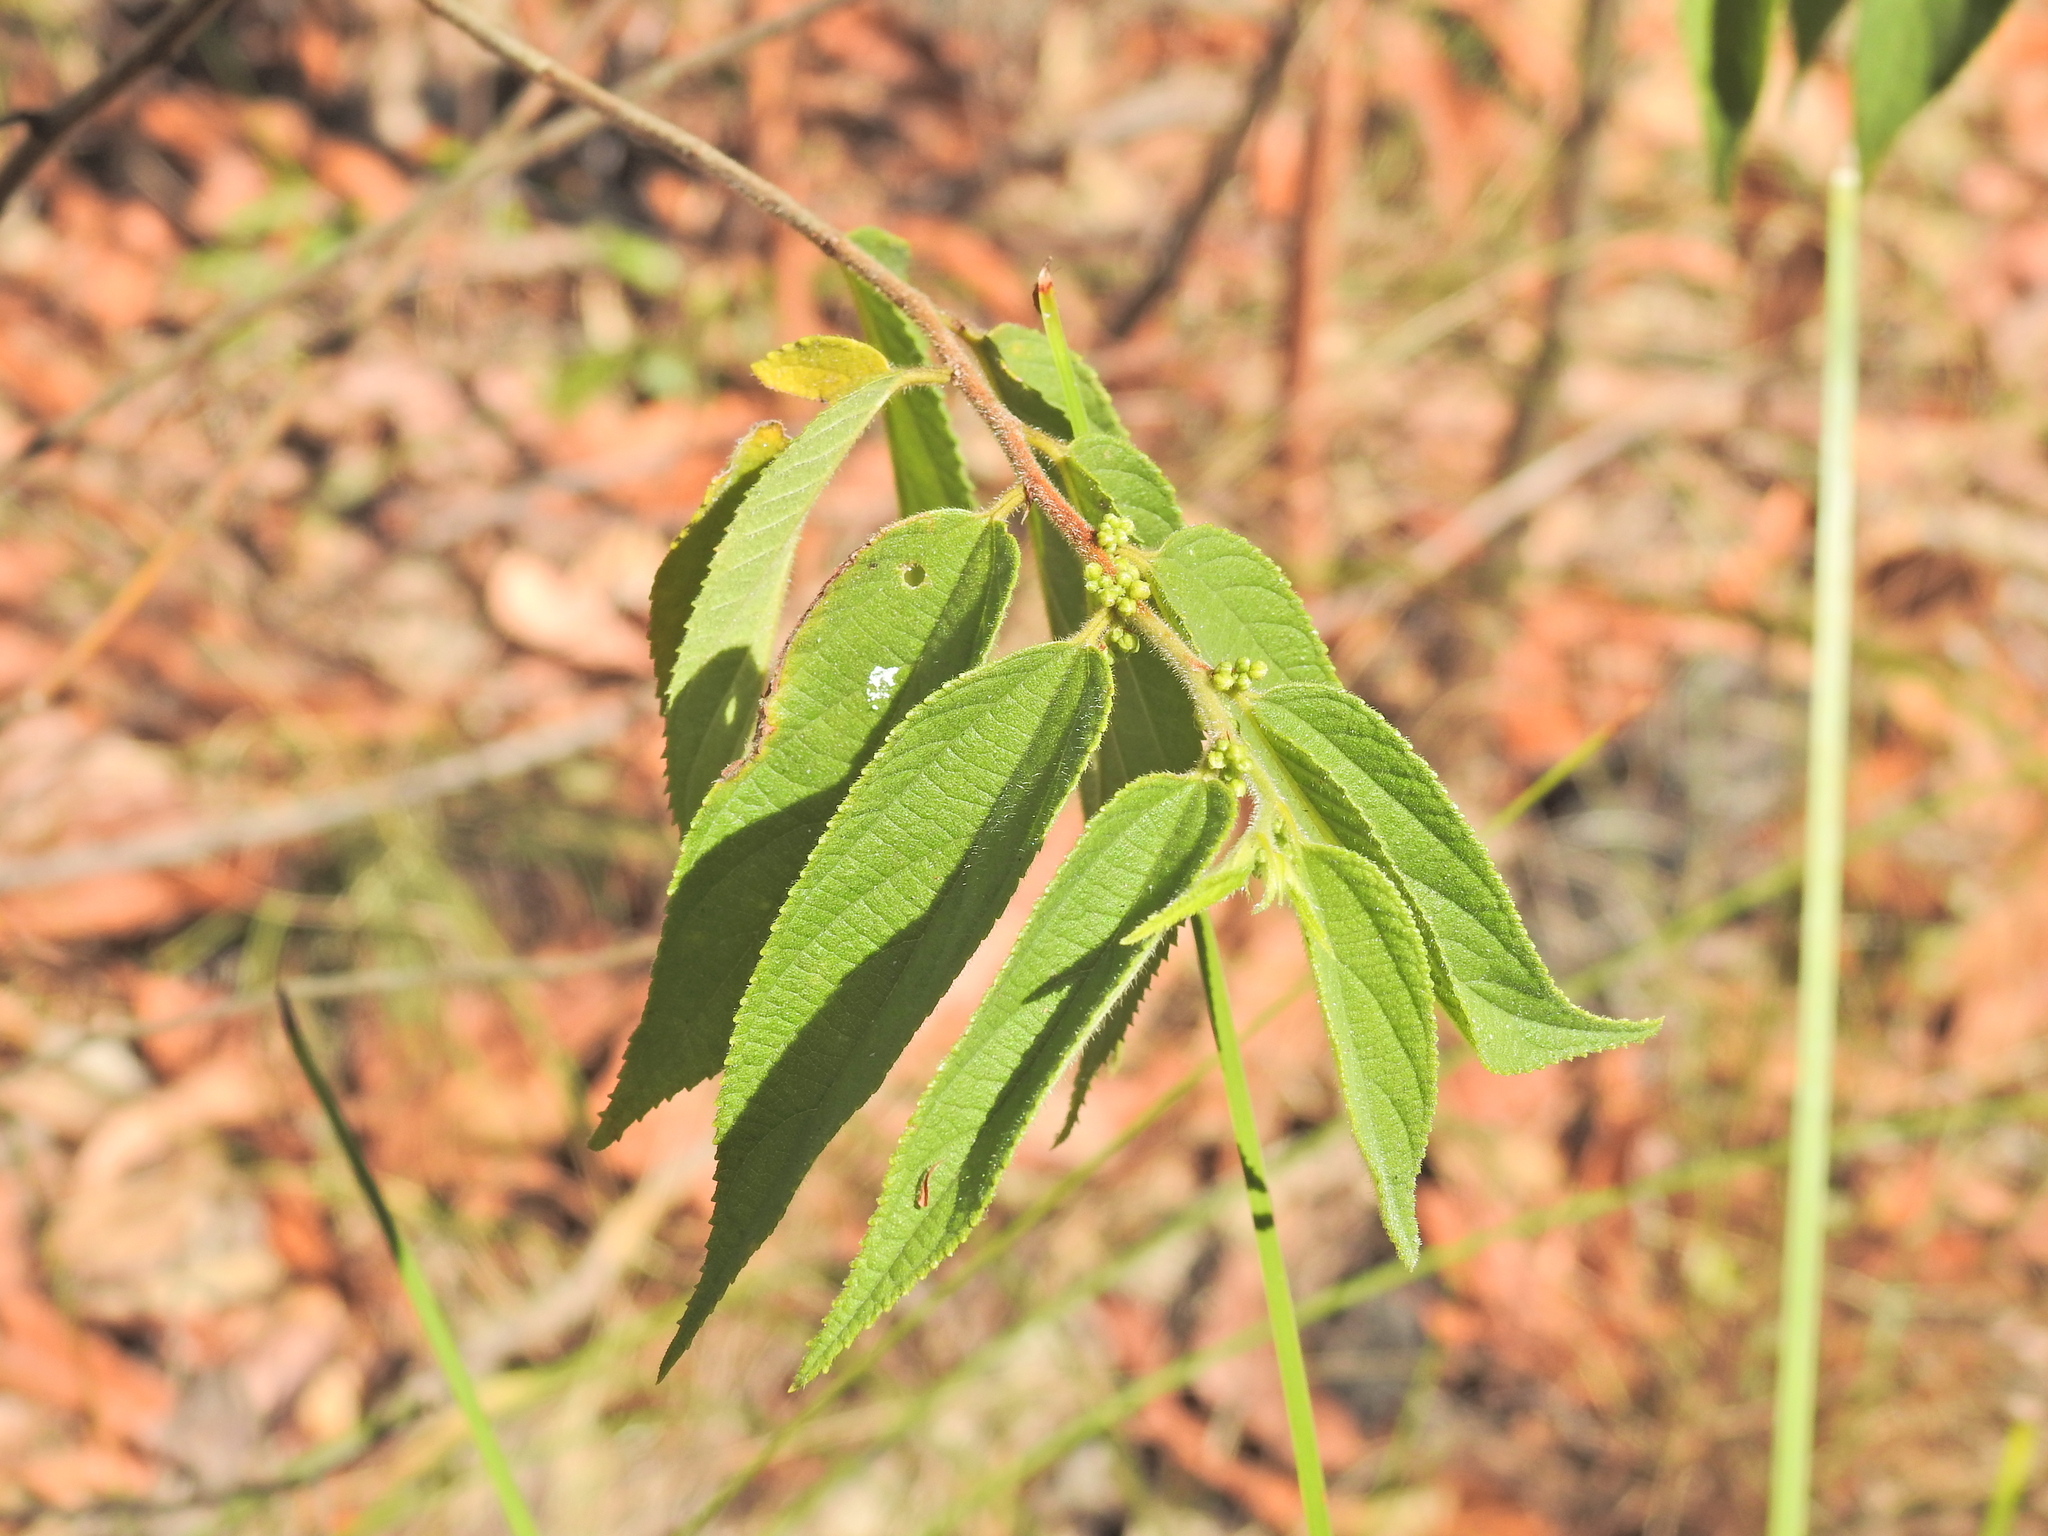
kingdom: Plantae
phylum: Tracheophyta
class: Magnoliopsida
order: Rosales
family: Cannabaceae
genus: Trema
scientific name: Trema tomentosum
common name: Peach-leaf-poisonbush
